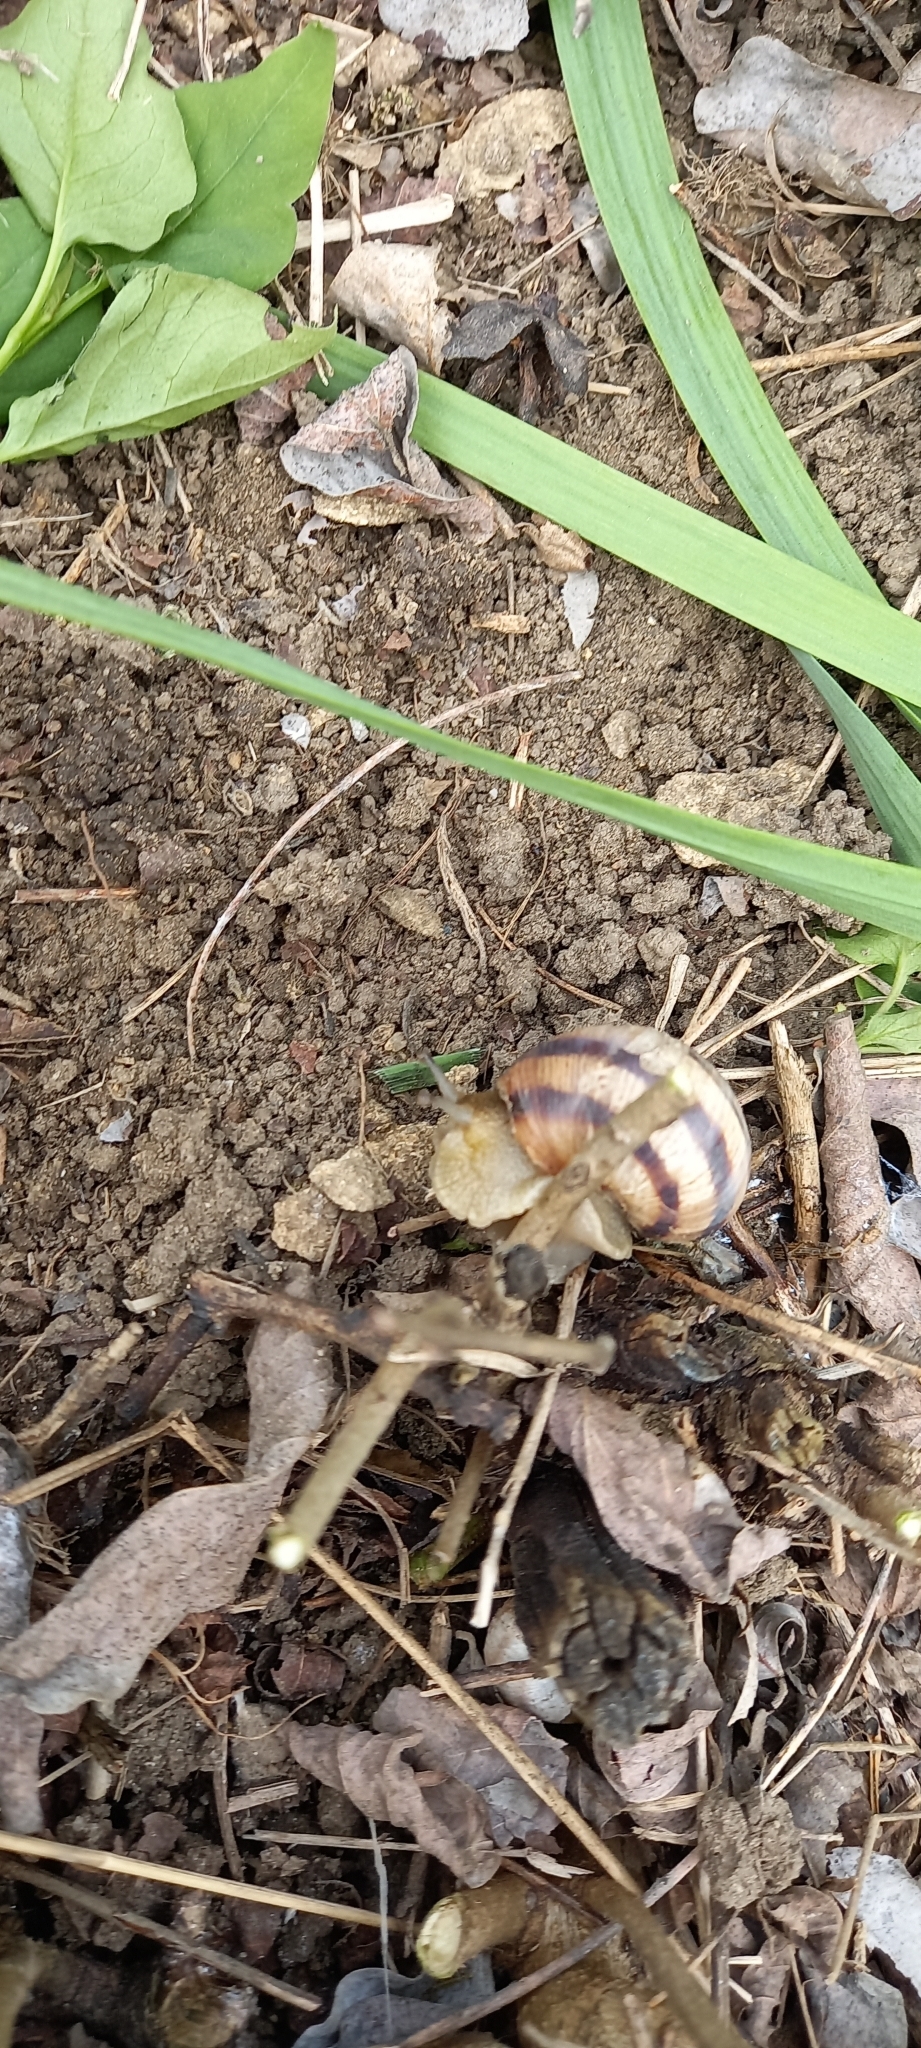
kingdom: Animalia
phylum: Mollusca
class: Gastropoda
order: Stylommatophora
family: Helicidae
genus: Helix
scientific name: Helix albescens
